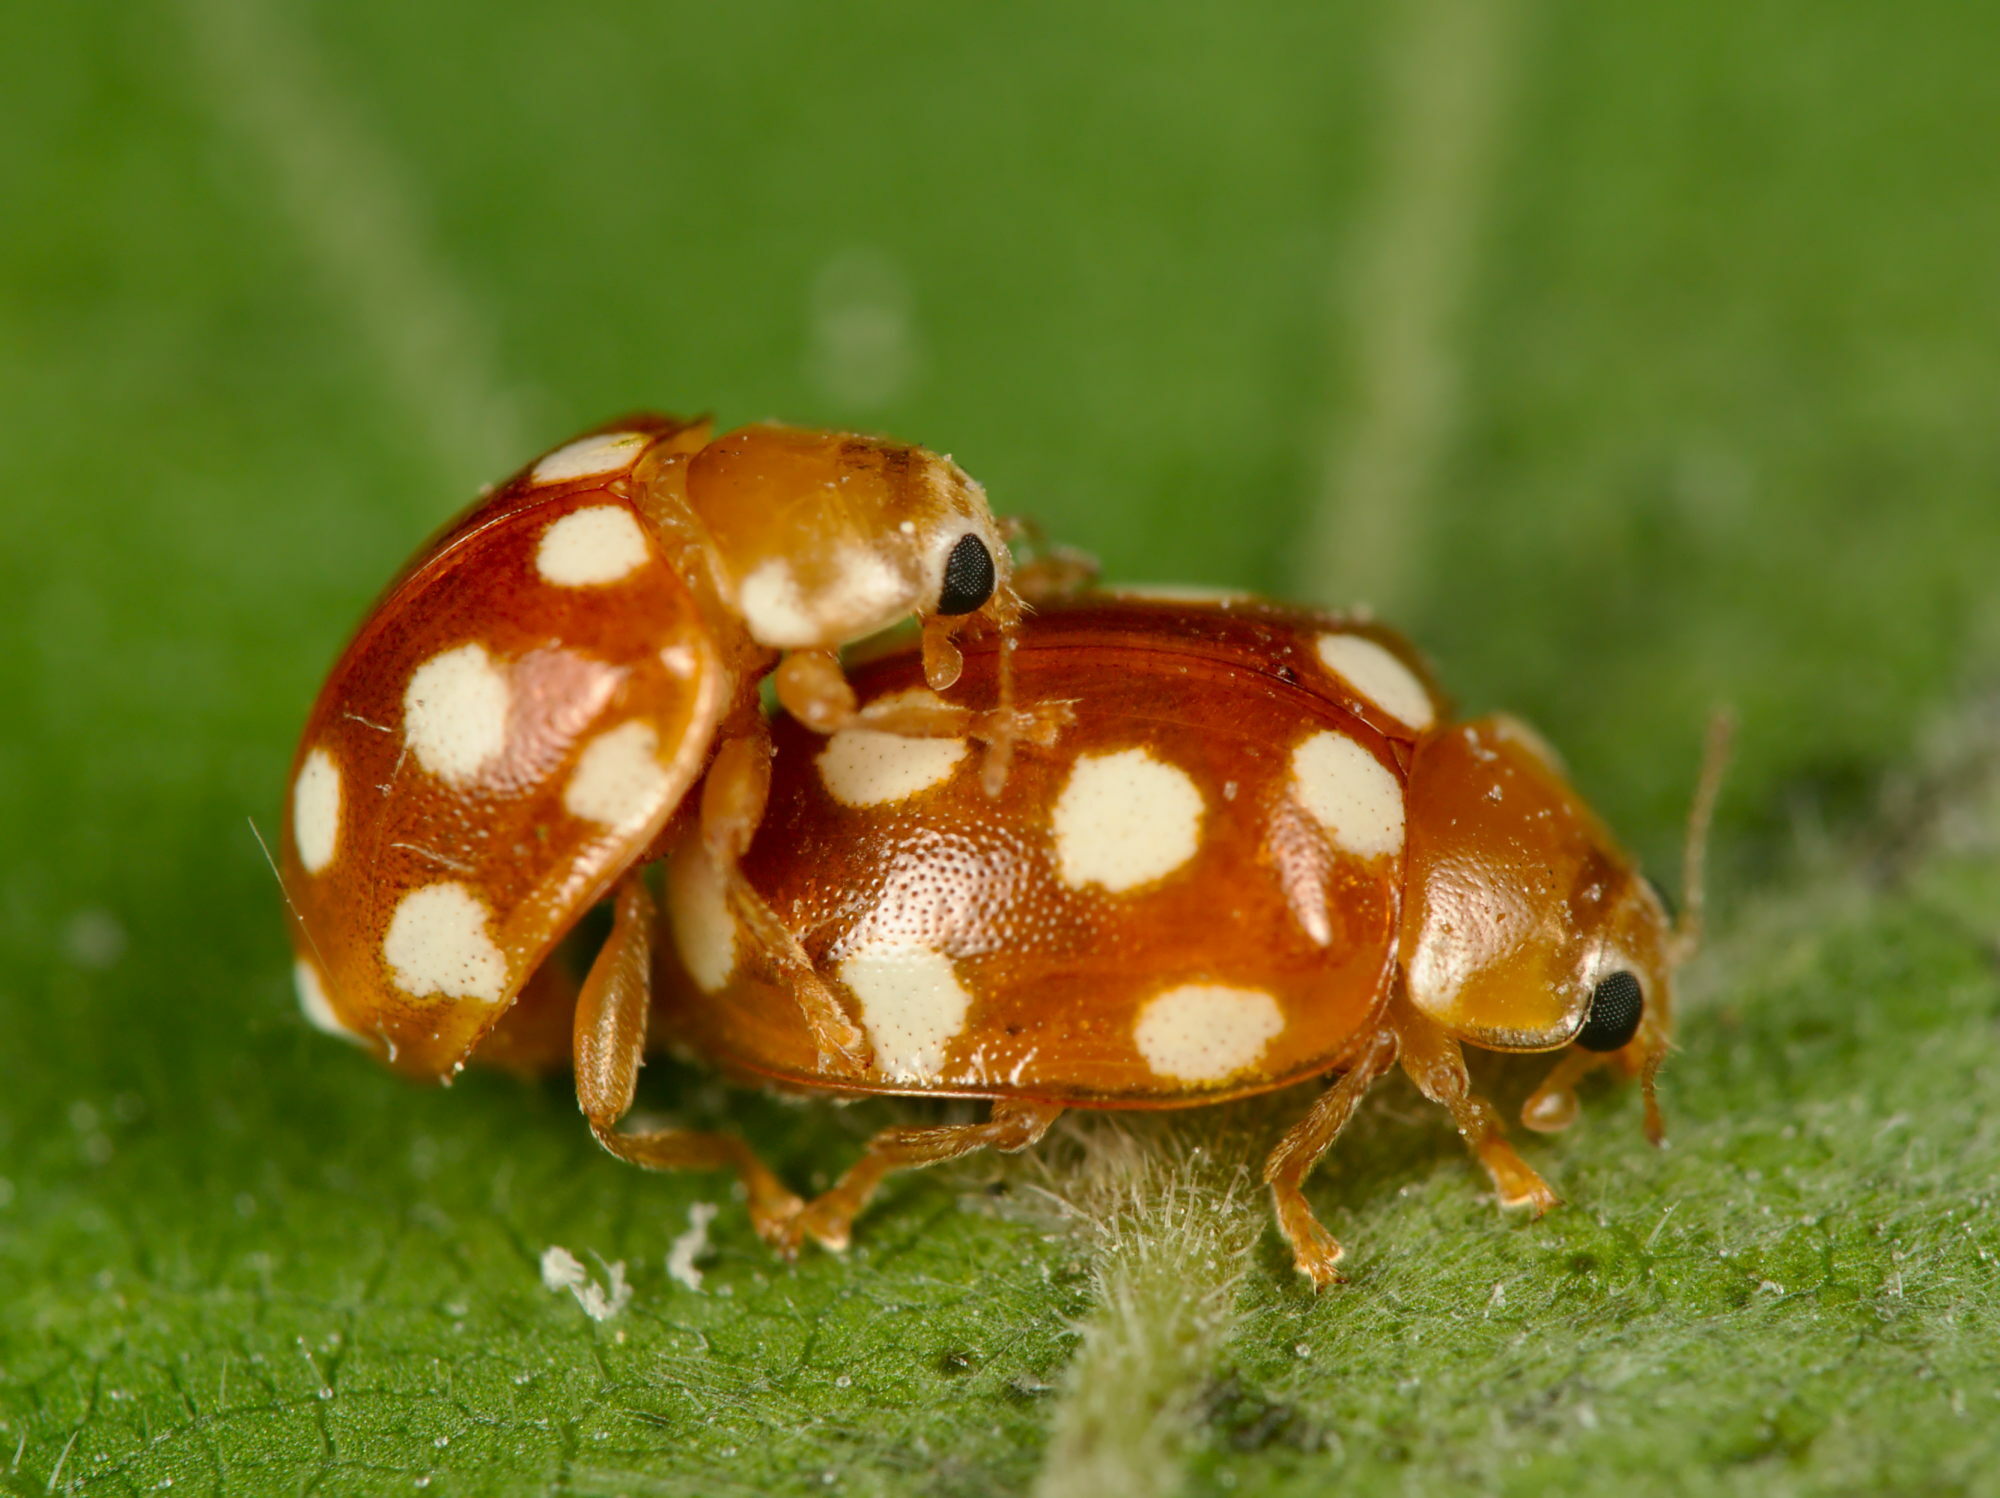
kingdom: Animalia
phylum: Arthropoda
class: Insecta
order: Coleoptera
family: Coccinellidae
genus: Vibidia
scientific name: Vibidia duodecimguttata
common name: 12-spot ladybird
